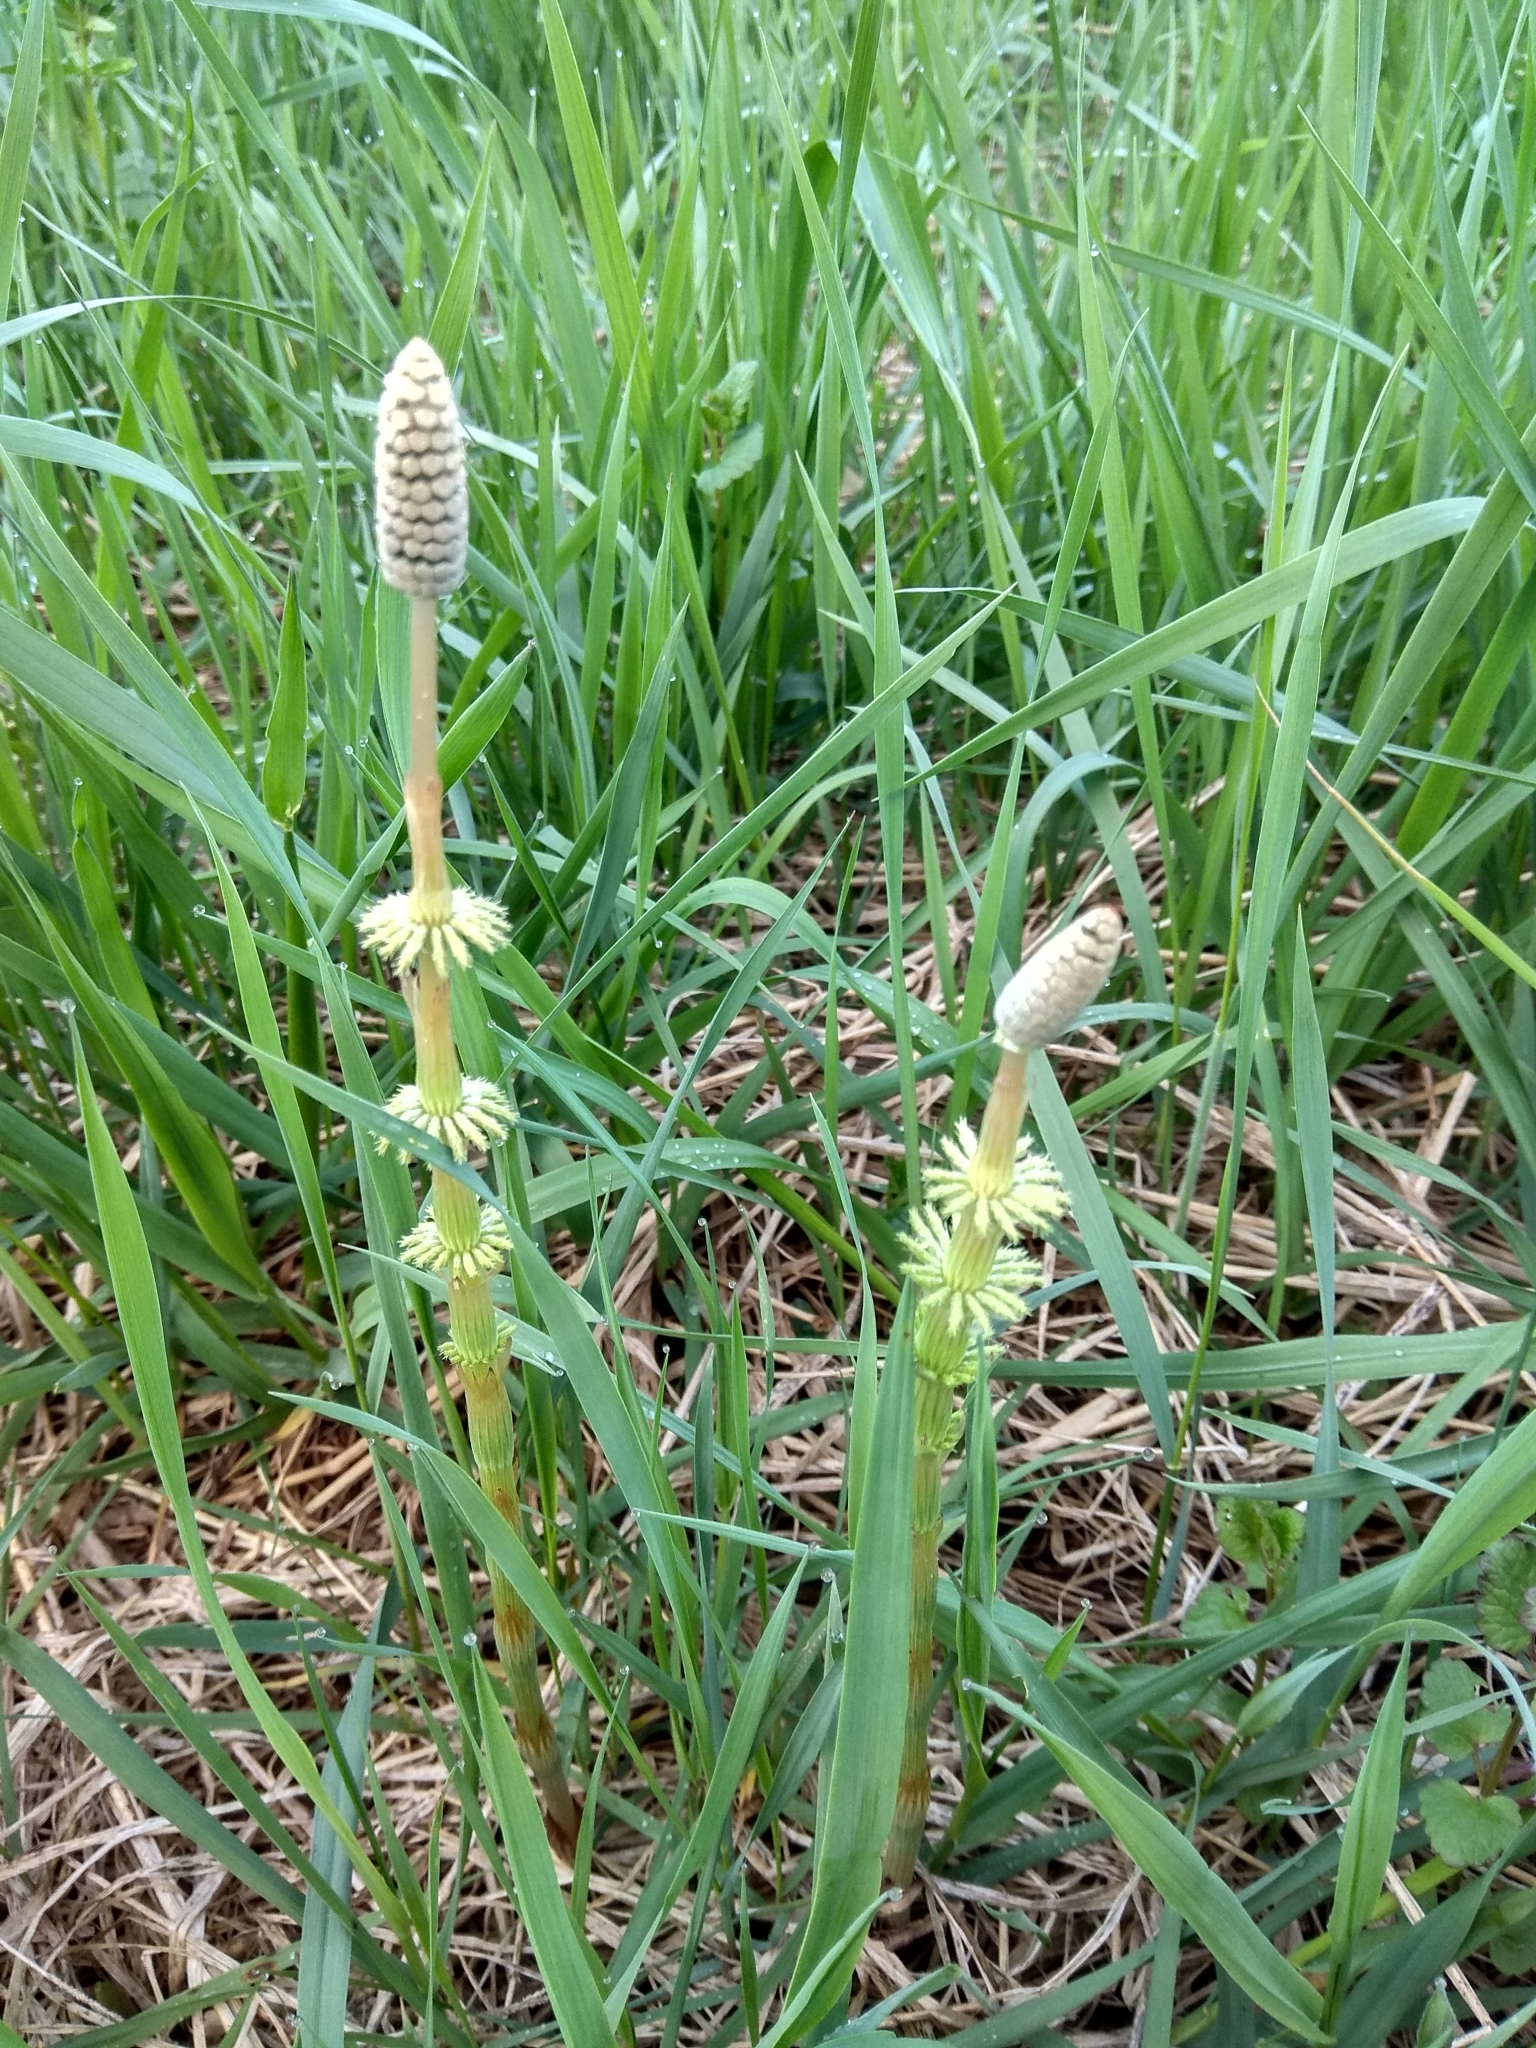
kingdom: Plantae
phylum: Tracheophyta
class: Polypodiopsida
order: Equisetales
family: Equisetaceae
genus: Equisetum
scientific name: Equisetum sylvaticum
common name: Wood horsetail
